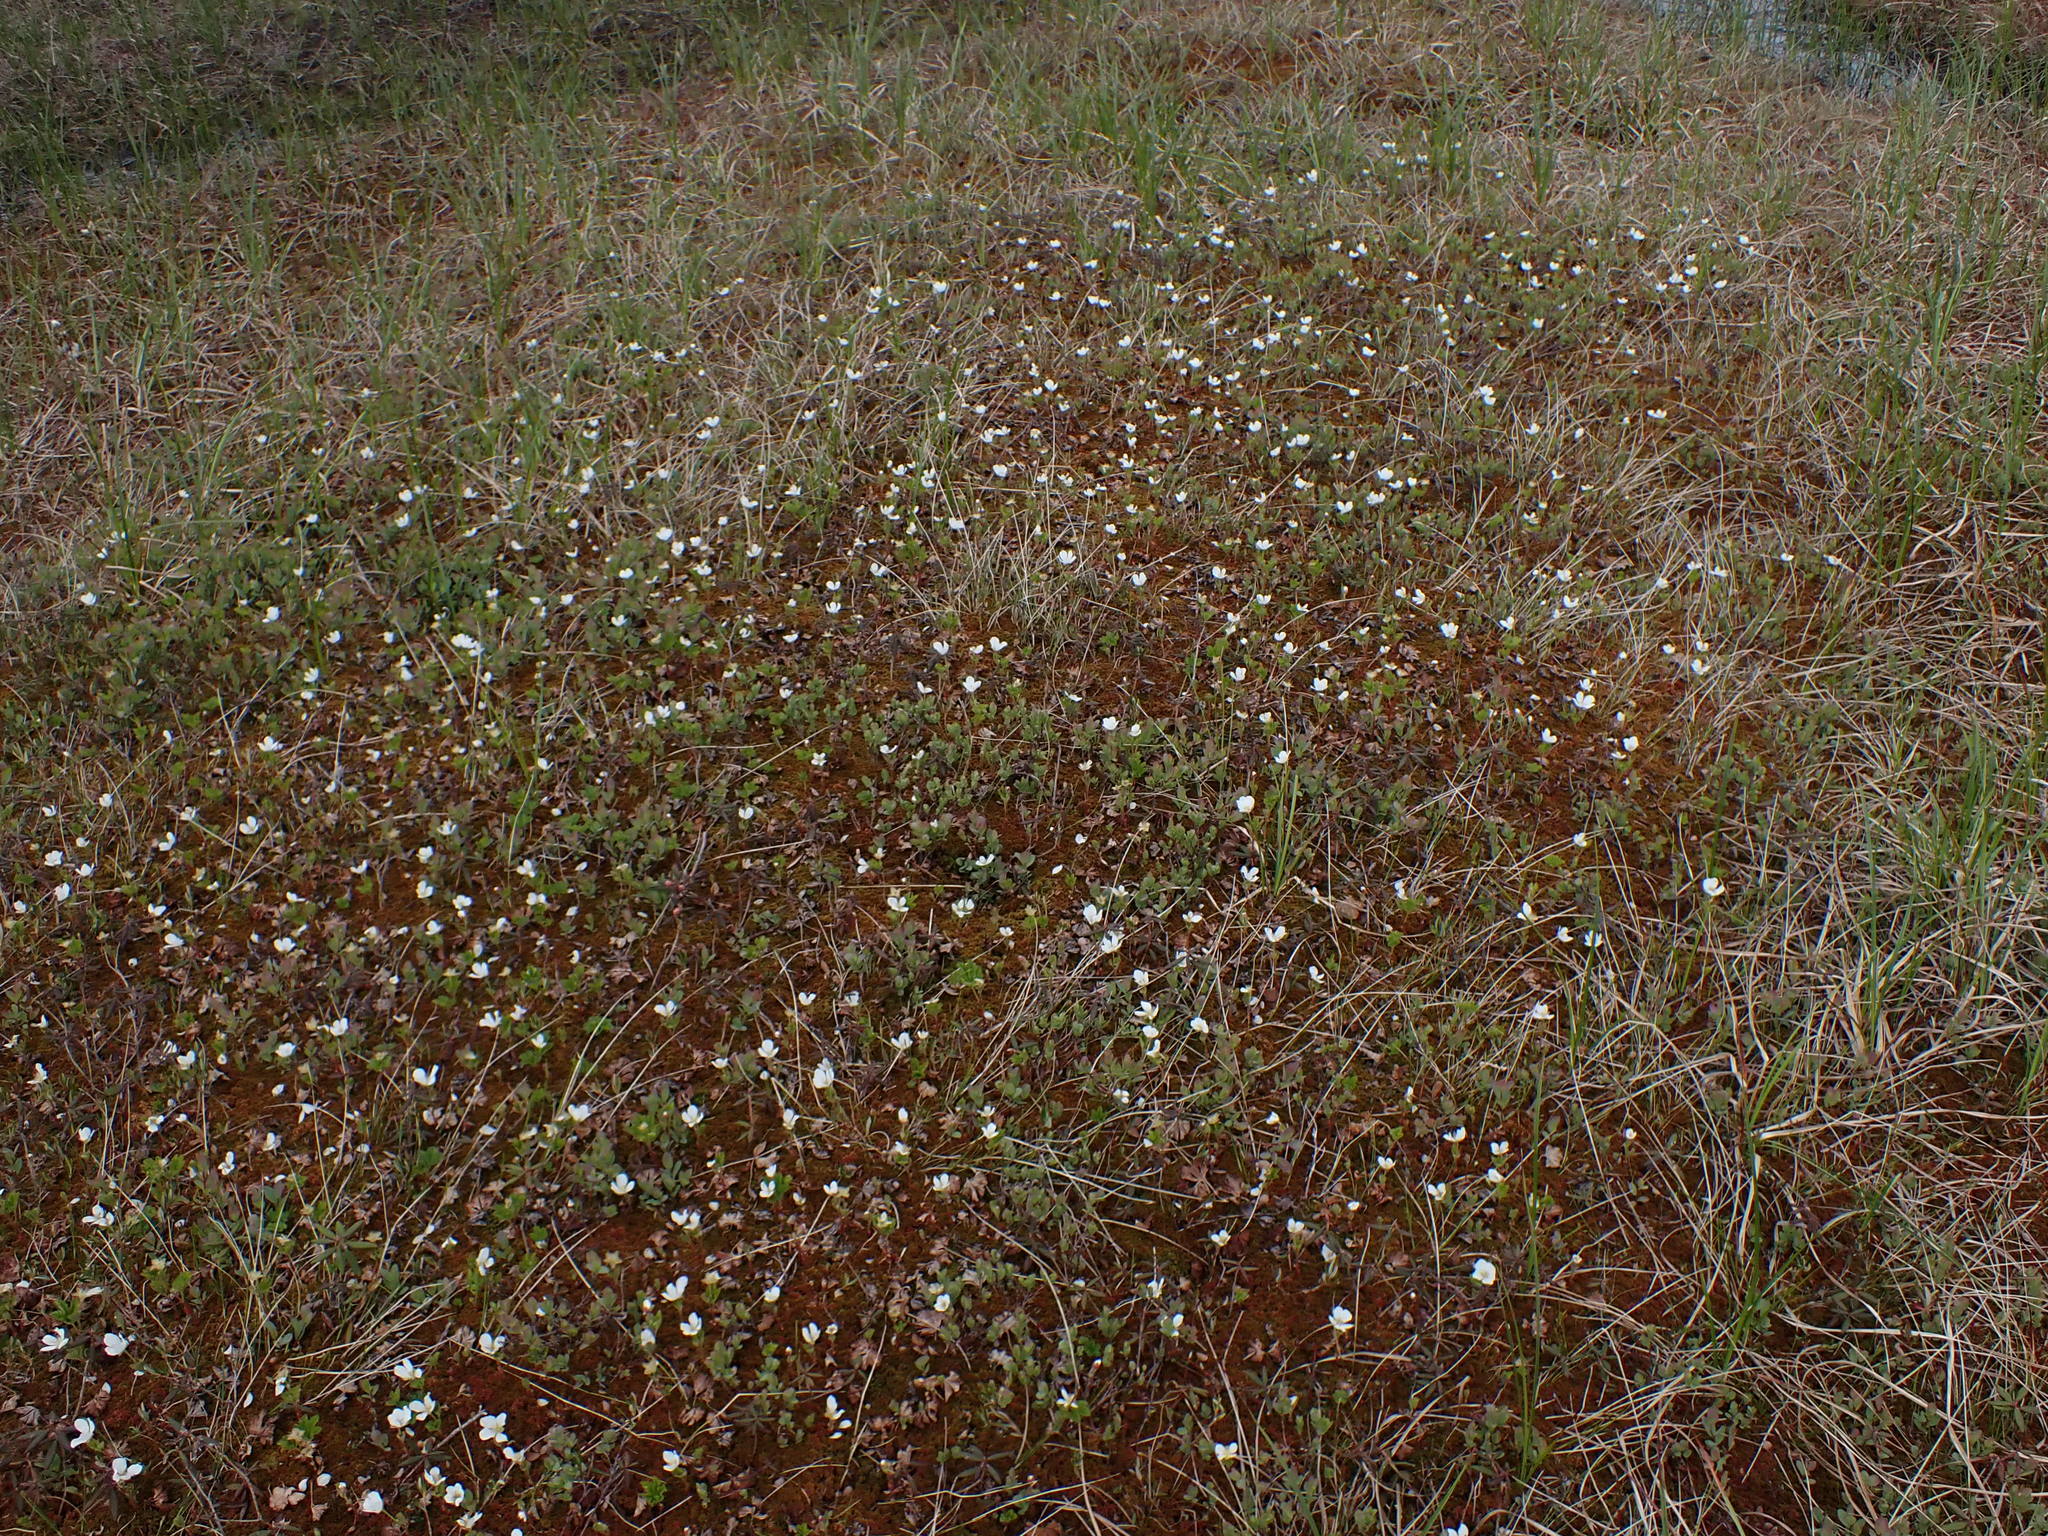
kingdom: Plantae
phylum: Tracheophyta
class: Magnoliopsida
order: Rosales
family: Rosaceae
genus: Rubus
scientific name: Rubus chamaemorus
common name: Cloudberry
